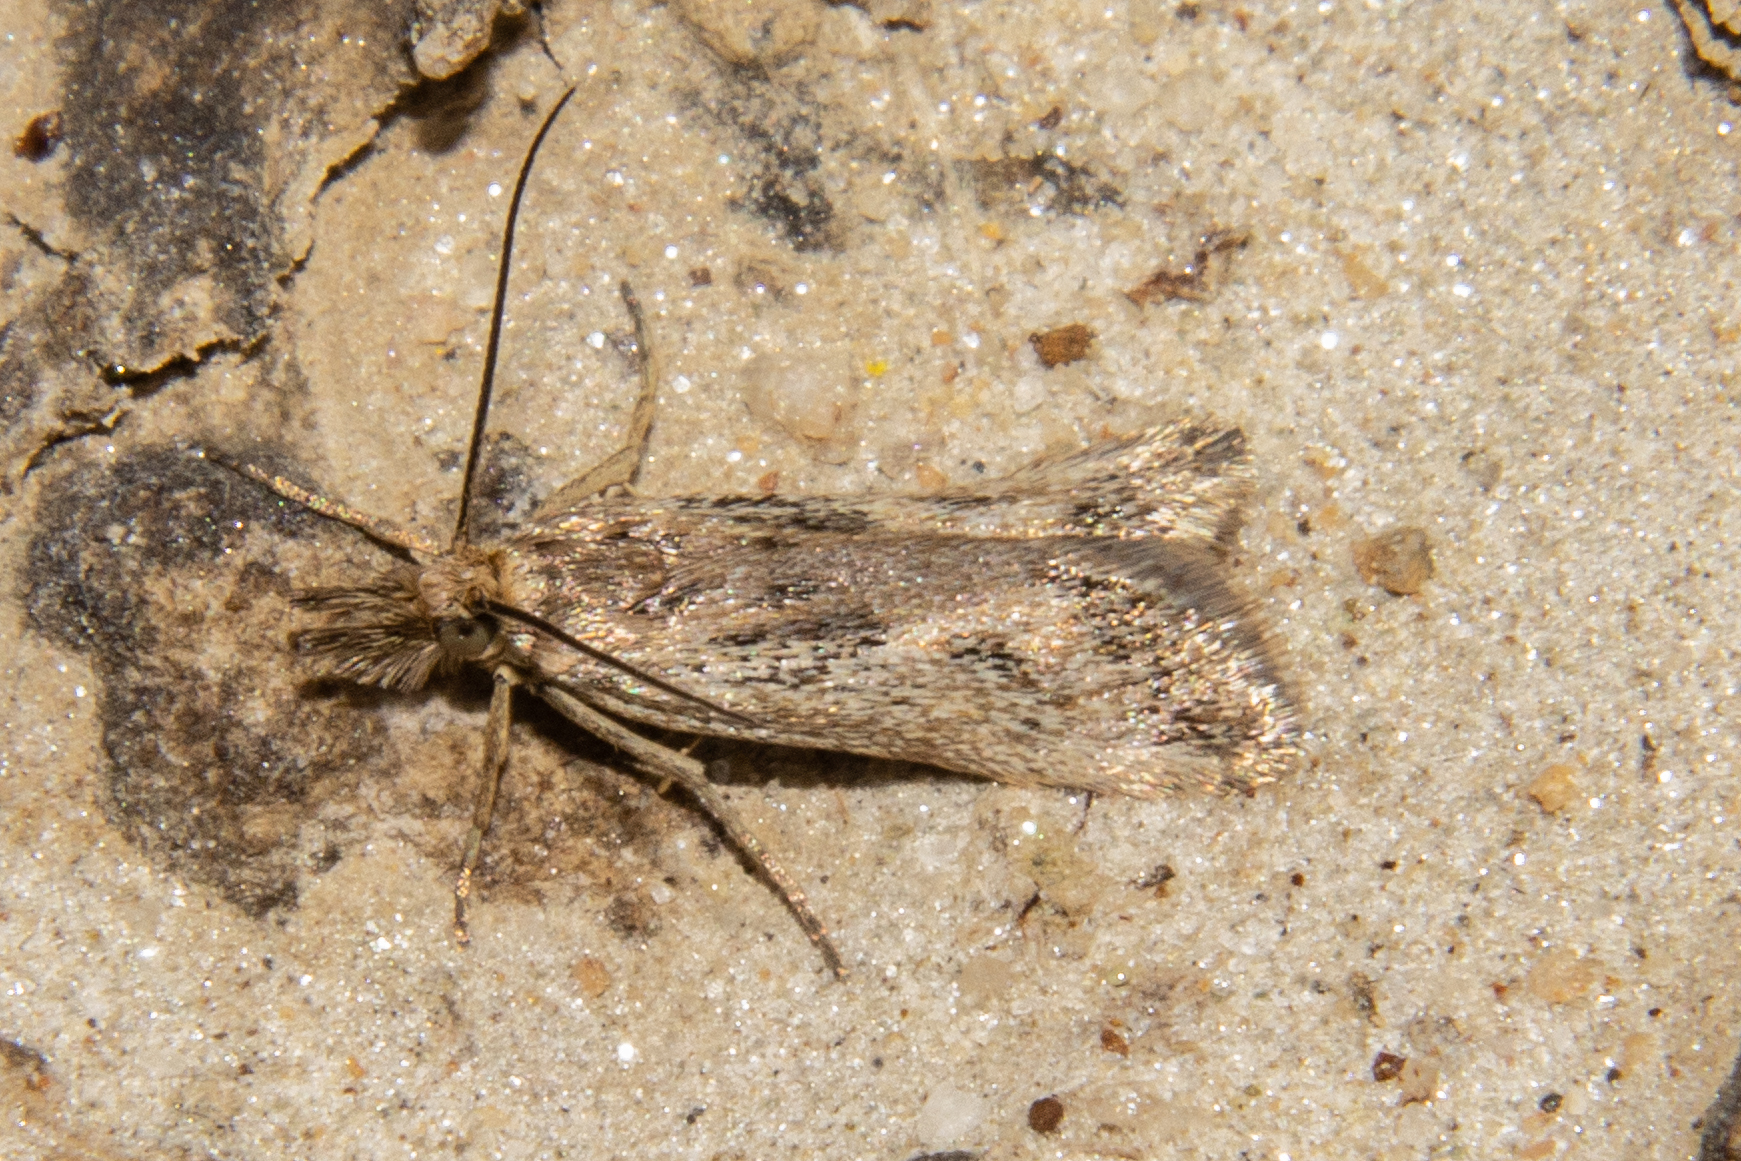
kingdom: Animalia
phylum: Arthropoda
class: Insecta
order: Lepidoptera
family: Crambidae
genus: Orocrambus
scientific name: Orocrambus corruptus
